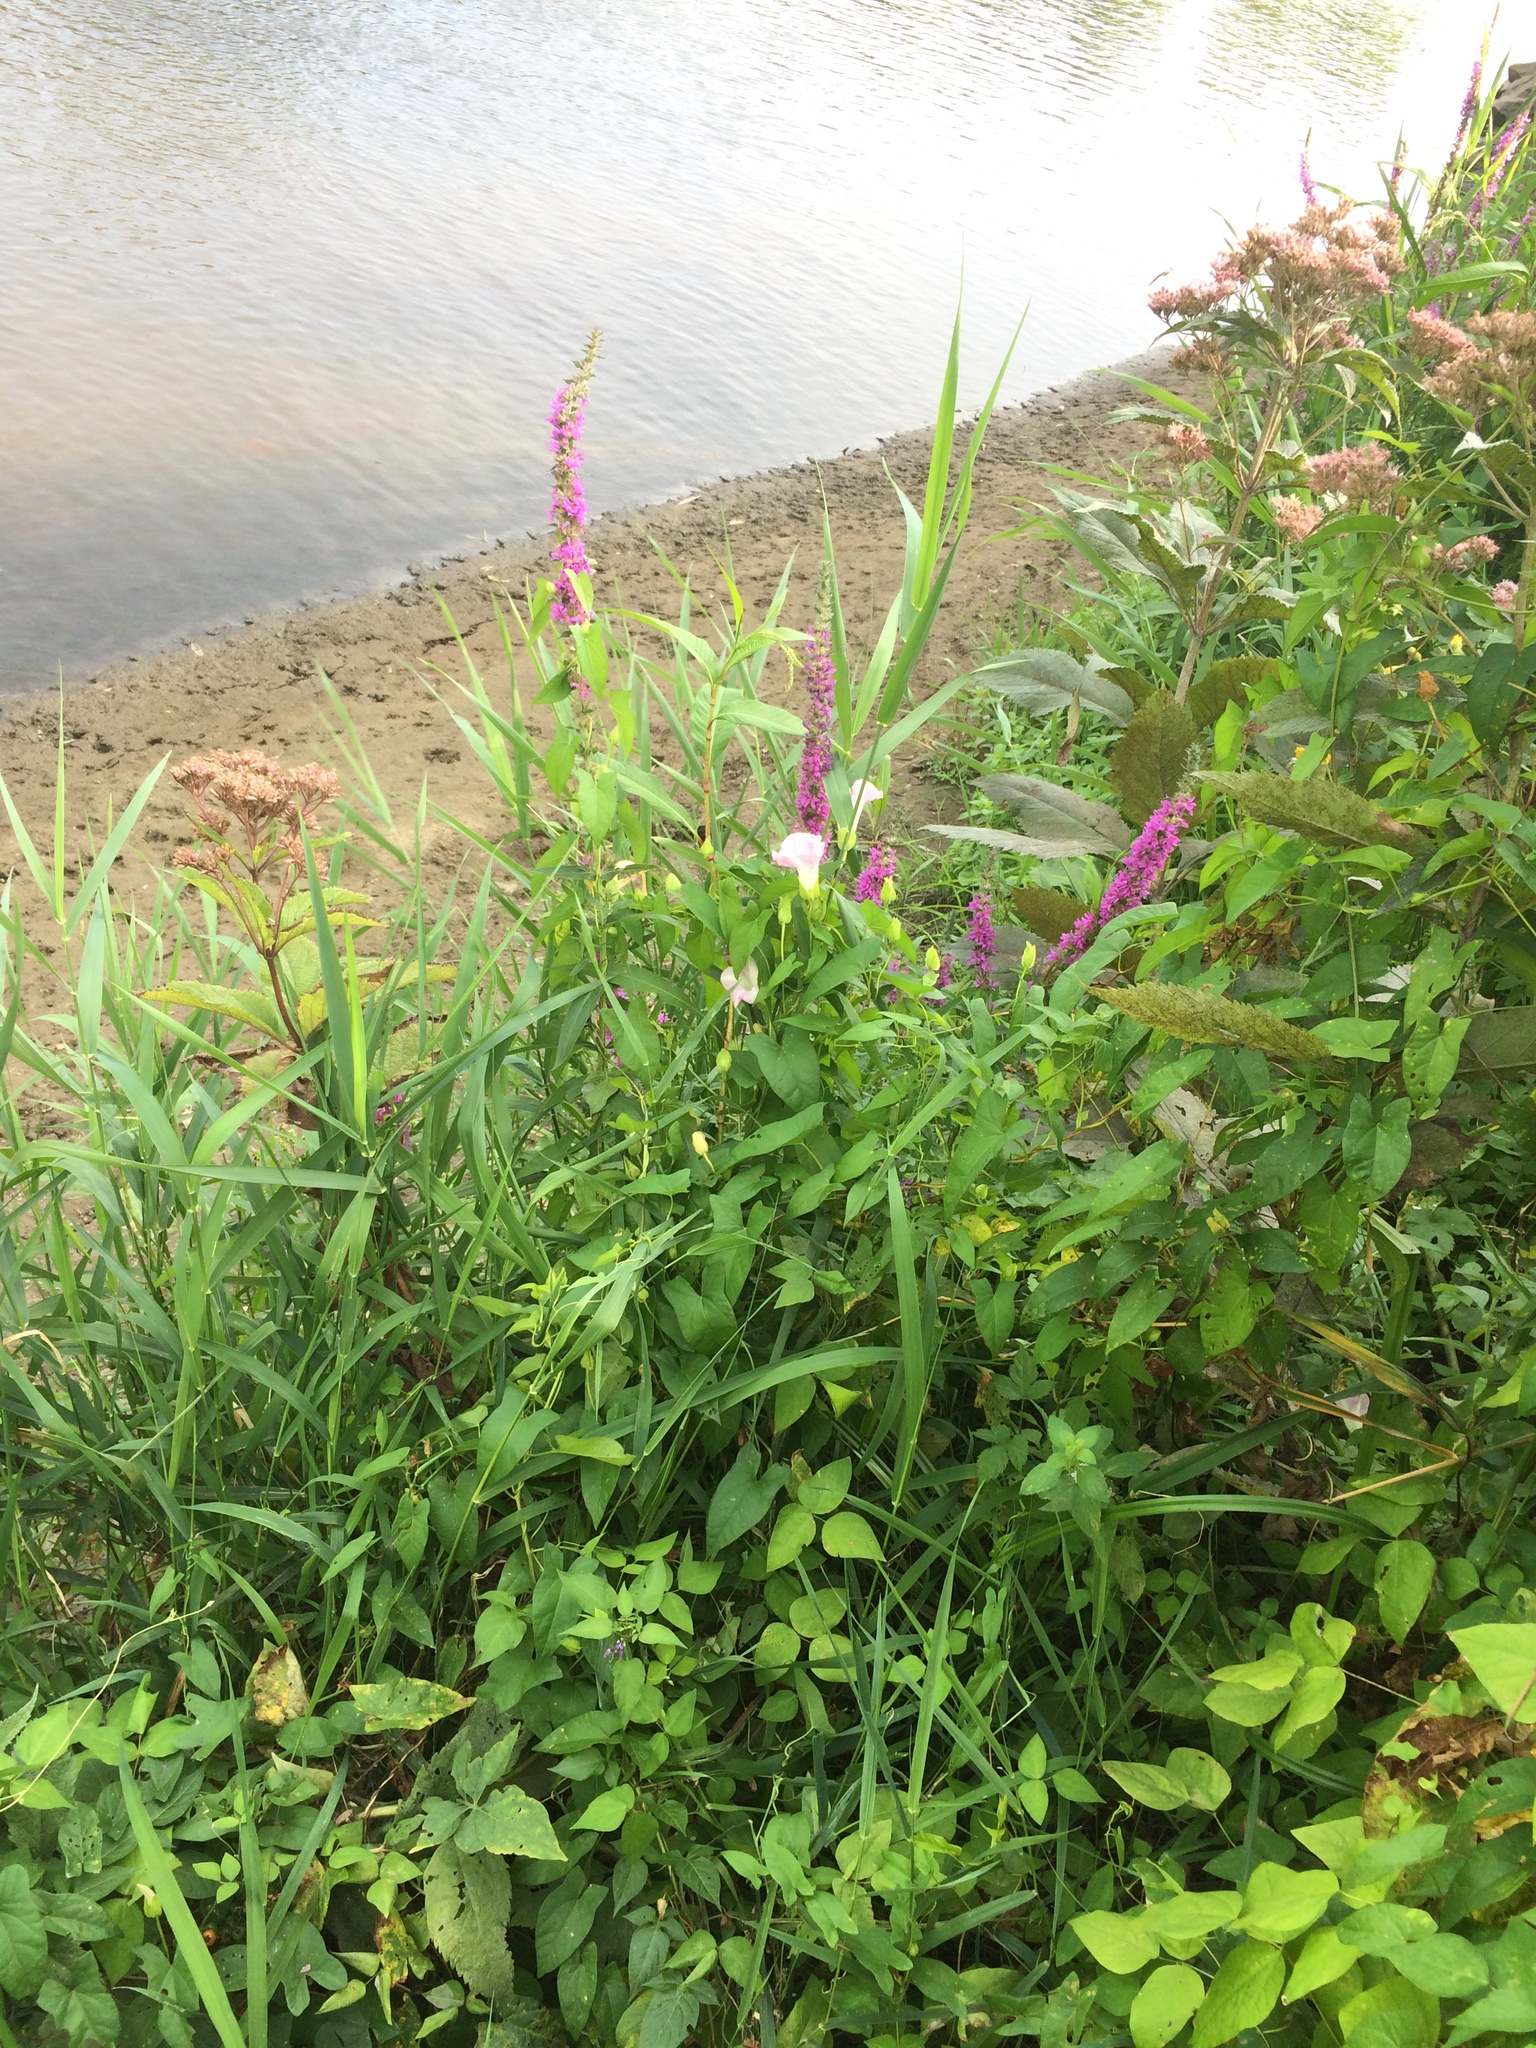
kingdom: Plantae
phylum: Tracheophyta
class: Magnoliopsida
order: Myrtales
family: Lythraceae
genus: Lythrum
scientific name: Lythrum salicaria
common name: Purple loosestrife
